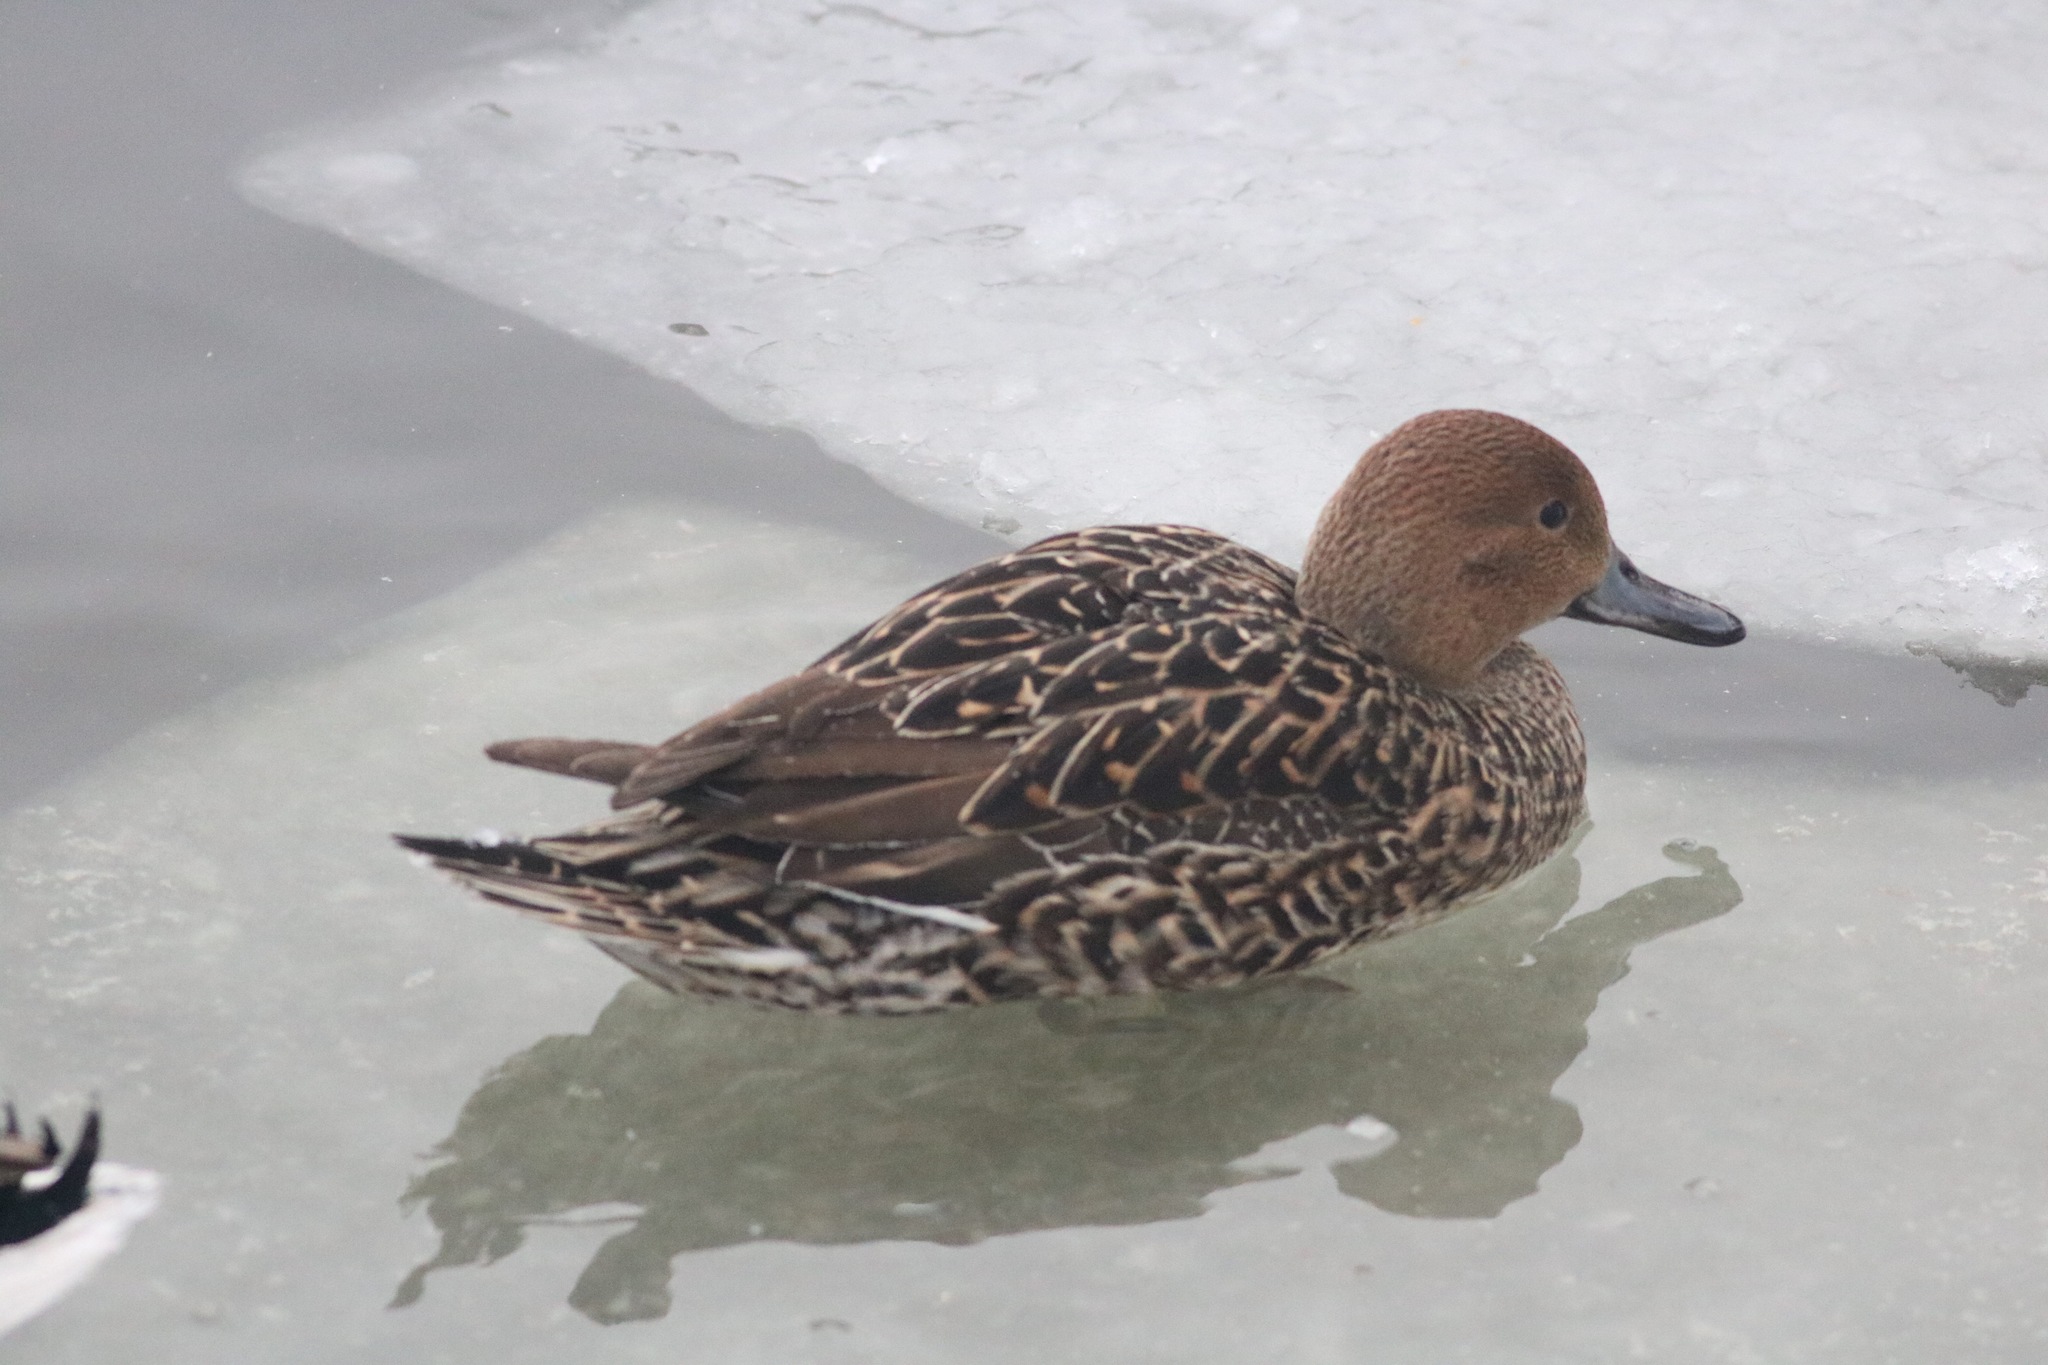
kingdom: Animalia
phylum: Chordata
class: Aves
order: Anseriformes
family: Anatidae
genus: Anas
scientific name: Anas acuta
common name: Northern pintail
